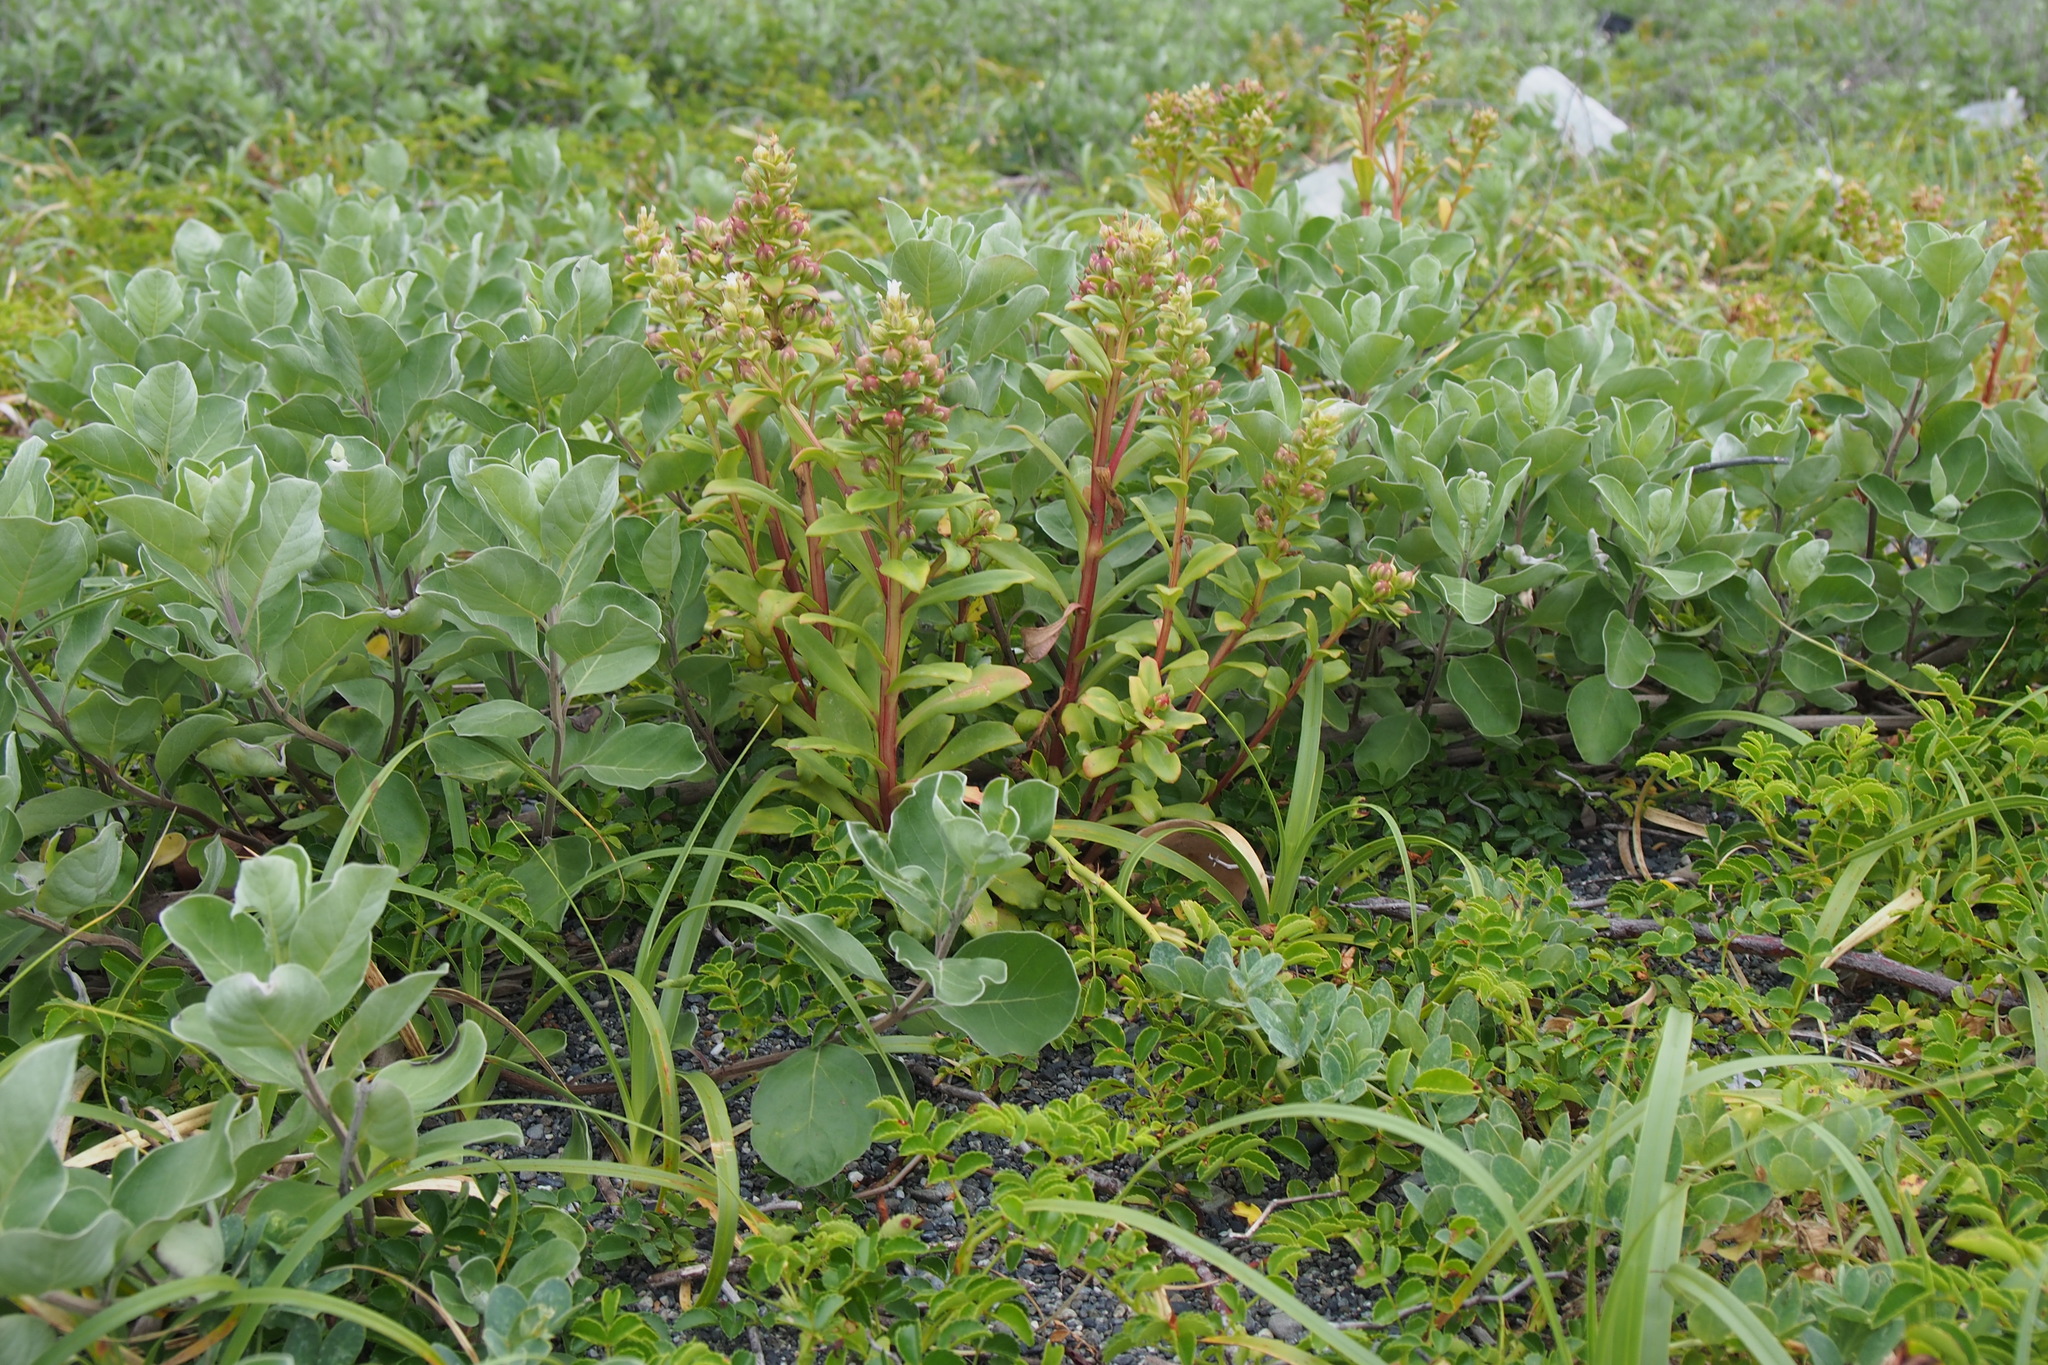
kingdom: Plantae
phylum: Tracheophyta
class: Magnoliopsida
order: Ericales
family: Primulaceae
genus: Lysimachia
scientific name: Lysimachia mauritiana
